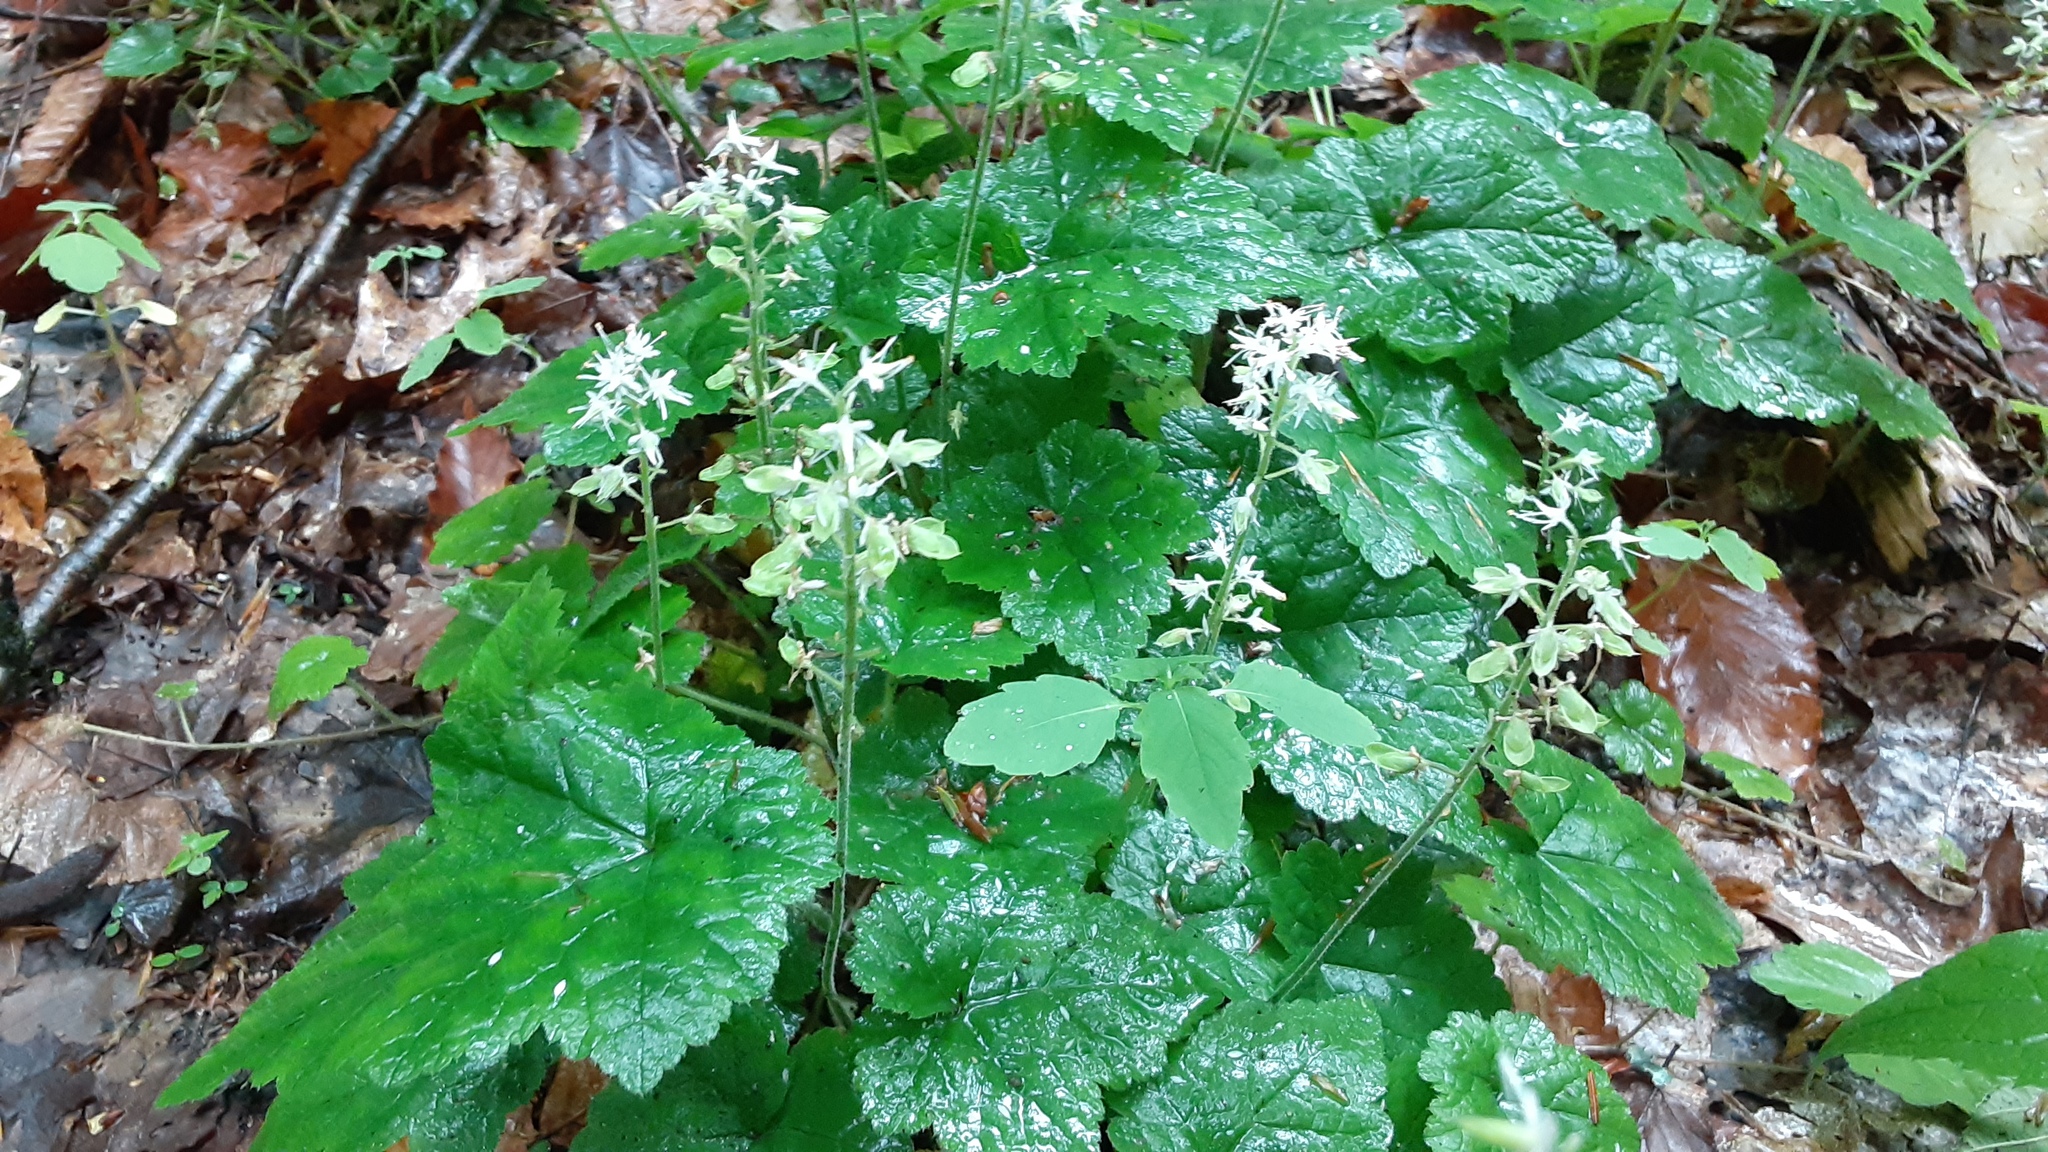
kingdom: Plantae
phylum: Tracheophyta
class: Magnoliopsida
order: Saxifragales
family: Saxifragaceae
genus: Tiarella
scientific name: Tiarella stolonifera
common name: Stoloniferous foamflower
